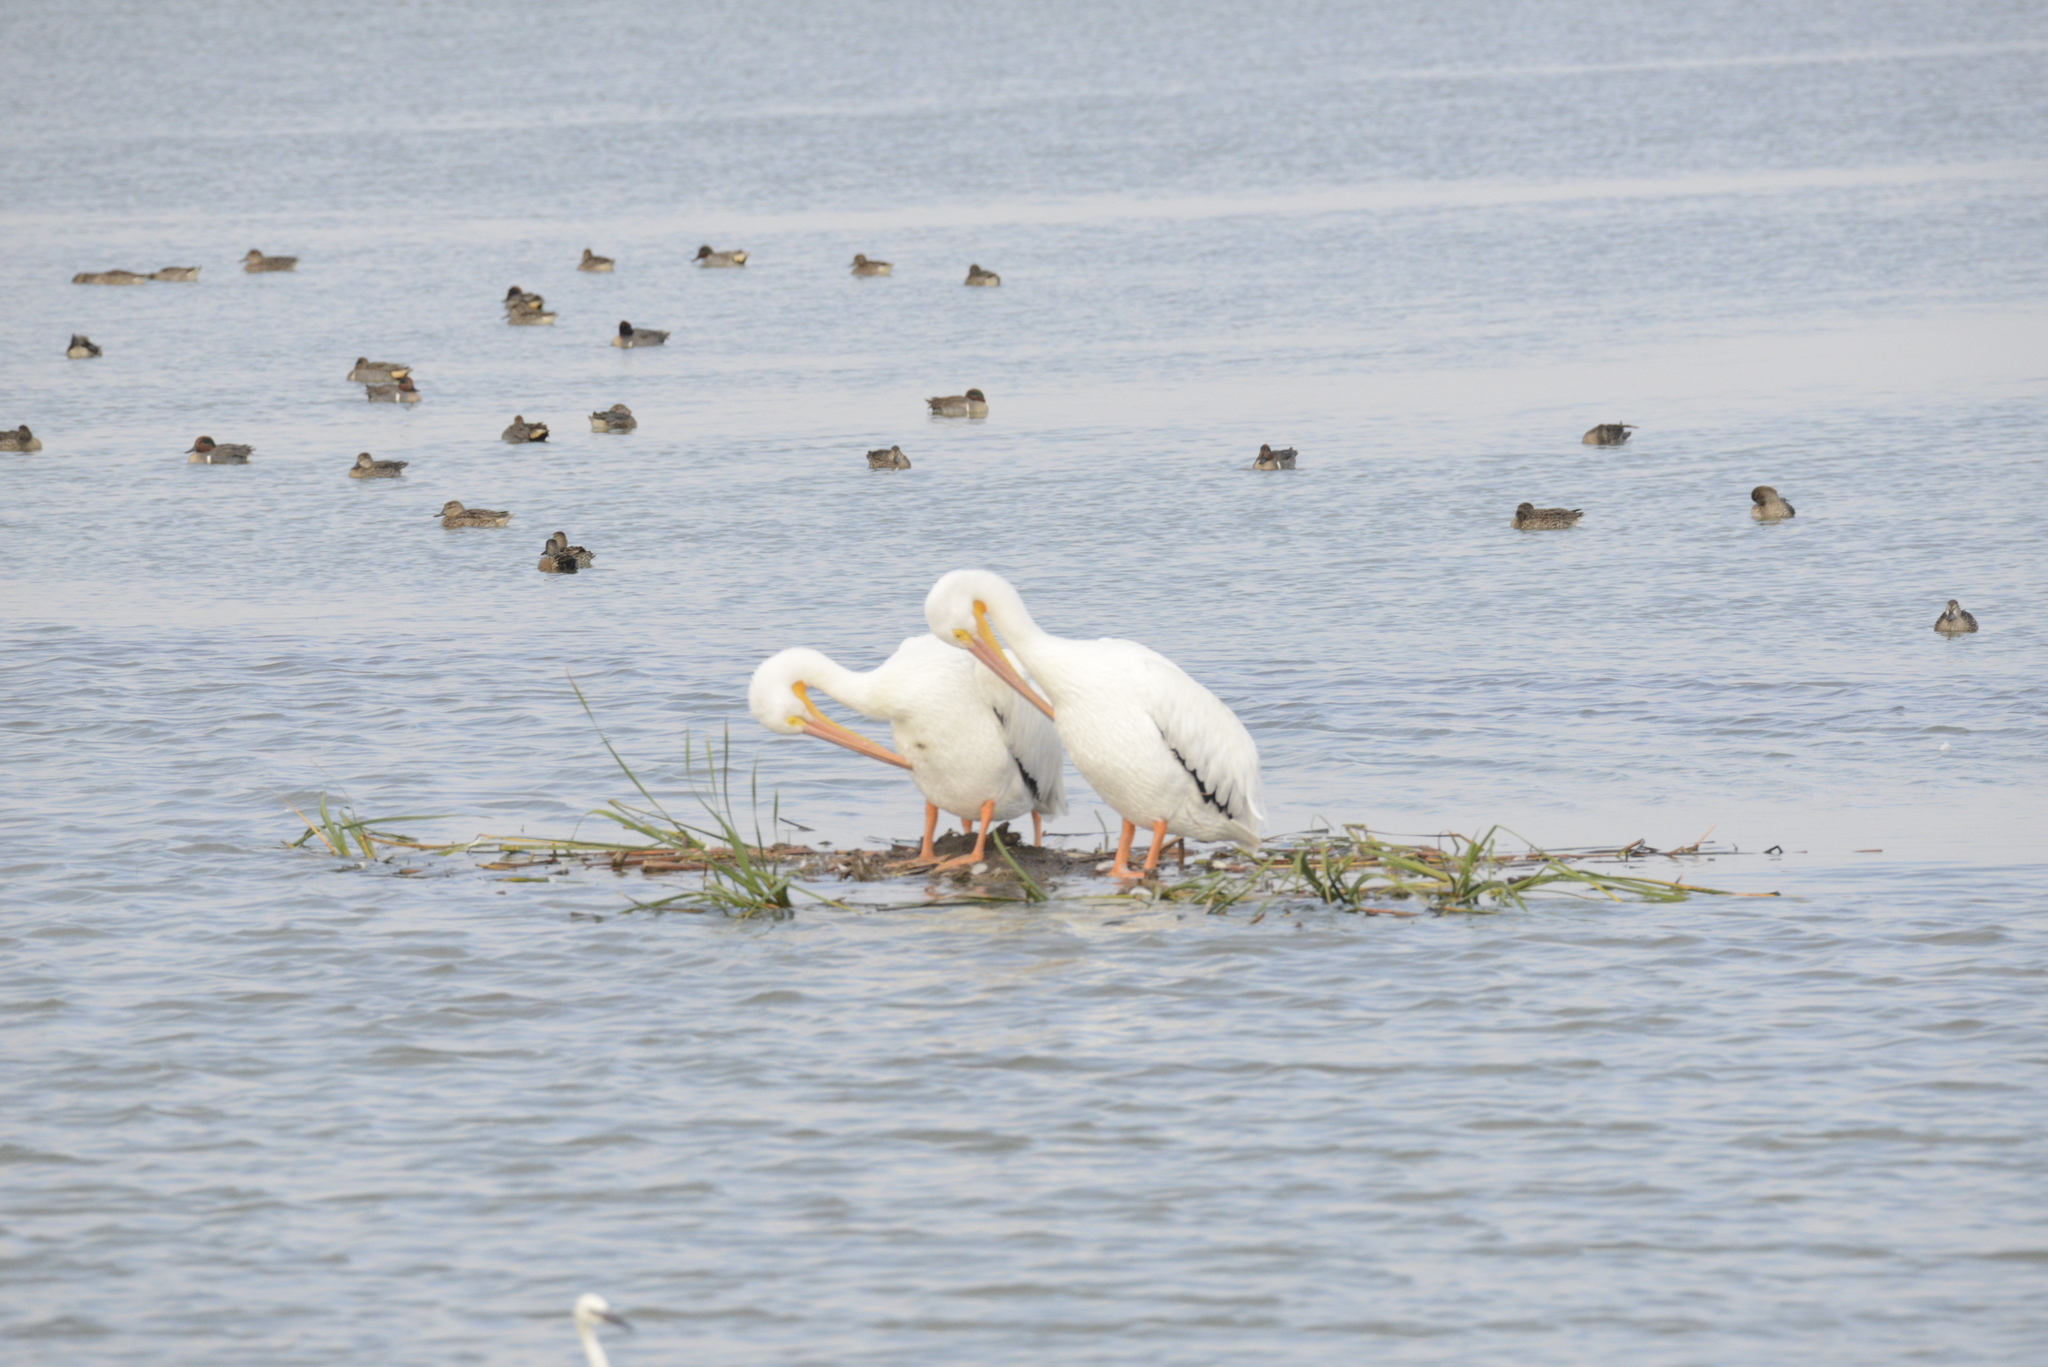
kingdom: Animalia
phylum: Chordata
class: Aves
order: Pelecaniformes
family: Pelecanidae
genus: Pelecanus
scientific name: Pelecanus erythrorhynchos
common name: American white pelican
